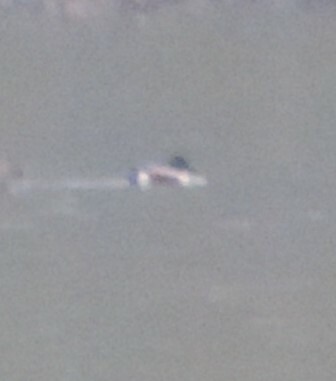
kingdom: Animalia
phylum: Chordata
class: Aves
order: Anseriformes
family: Anatidae
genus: Spatula
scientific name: Spatula clypeata
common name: Northern shoveler
